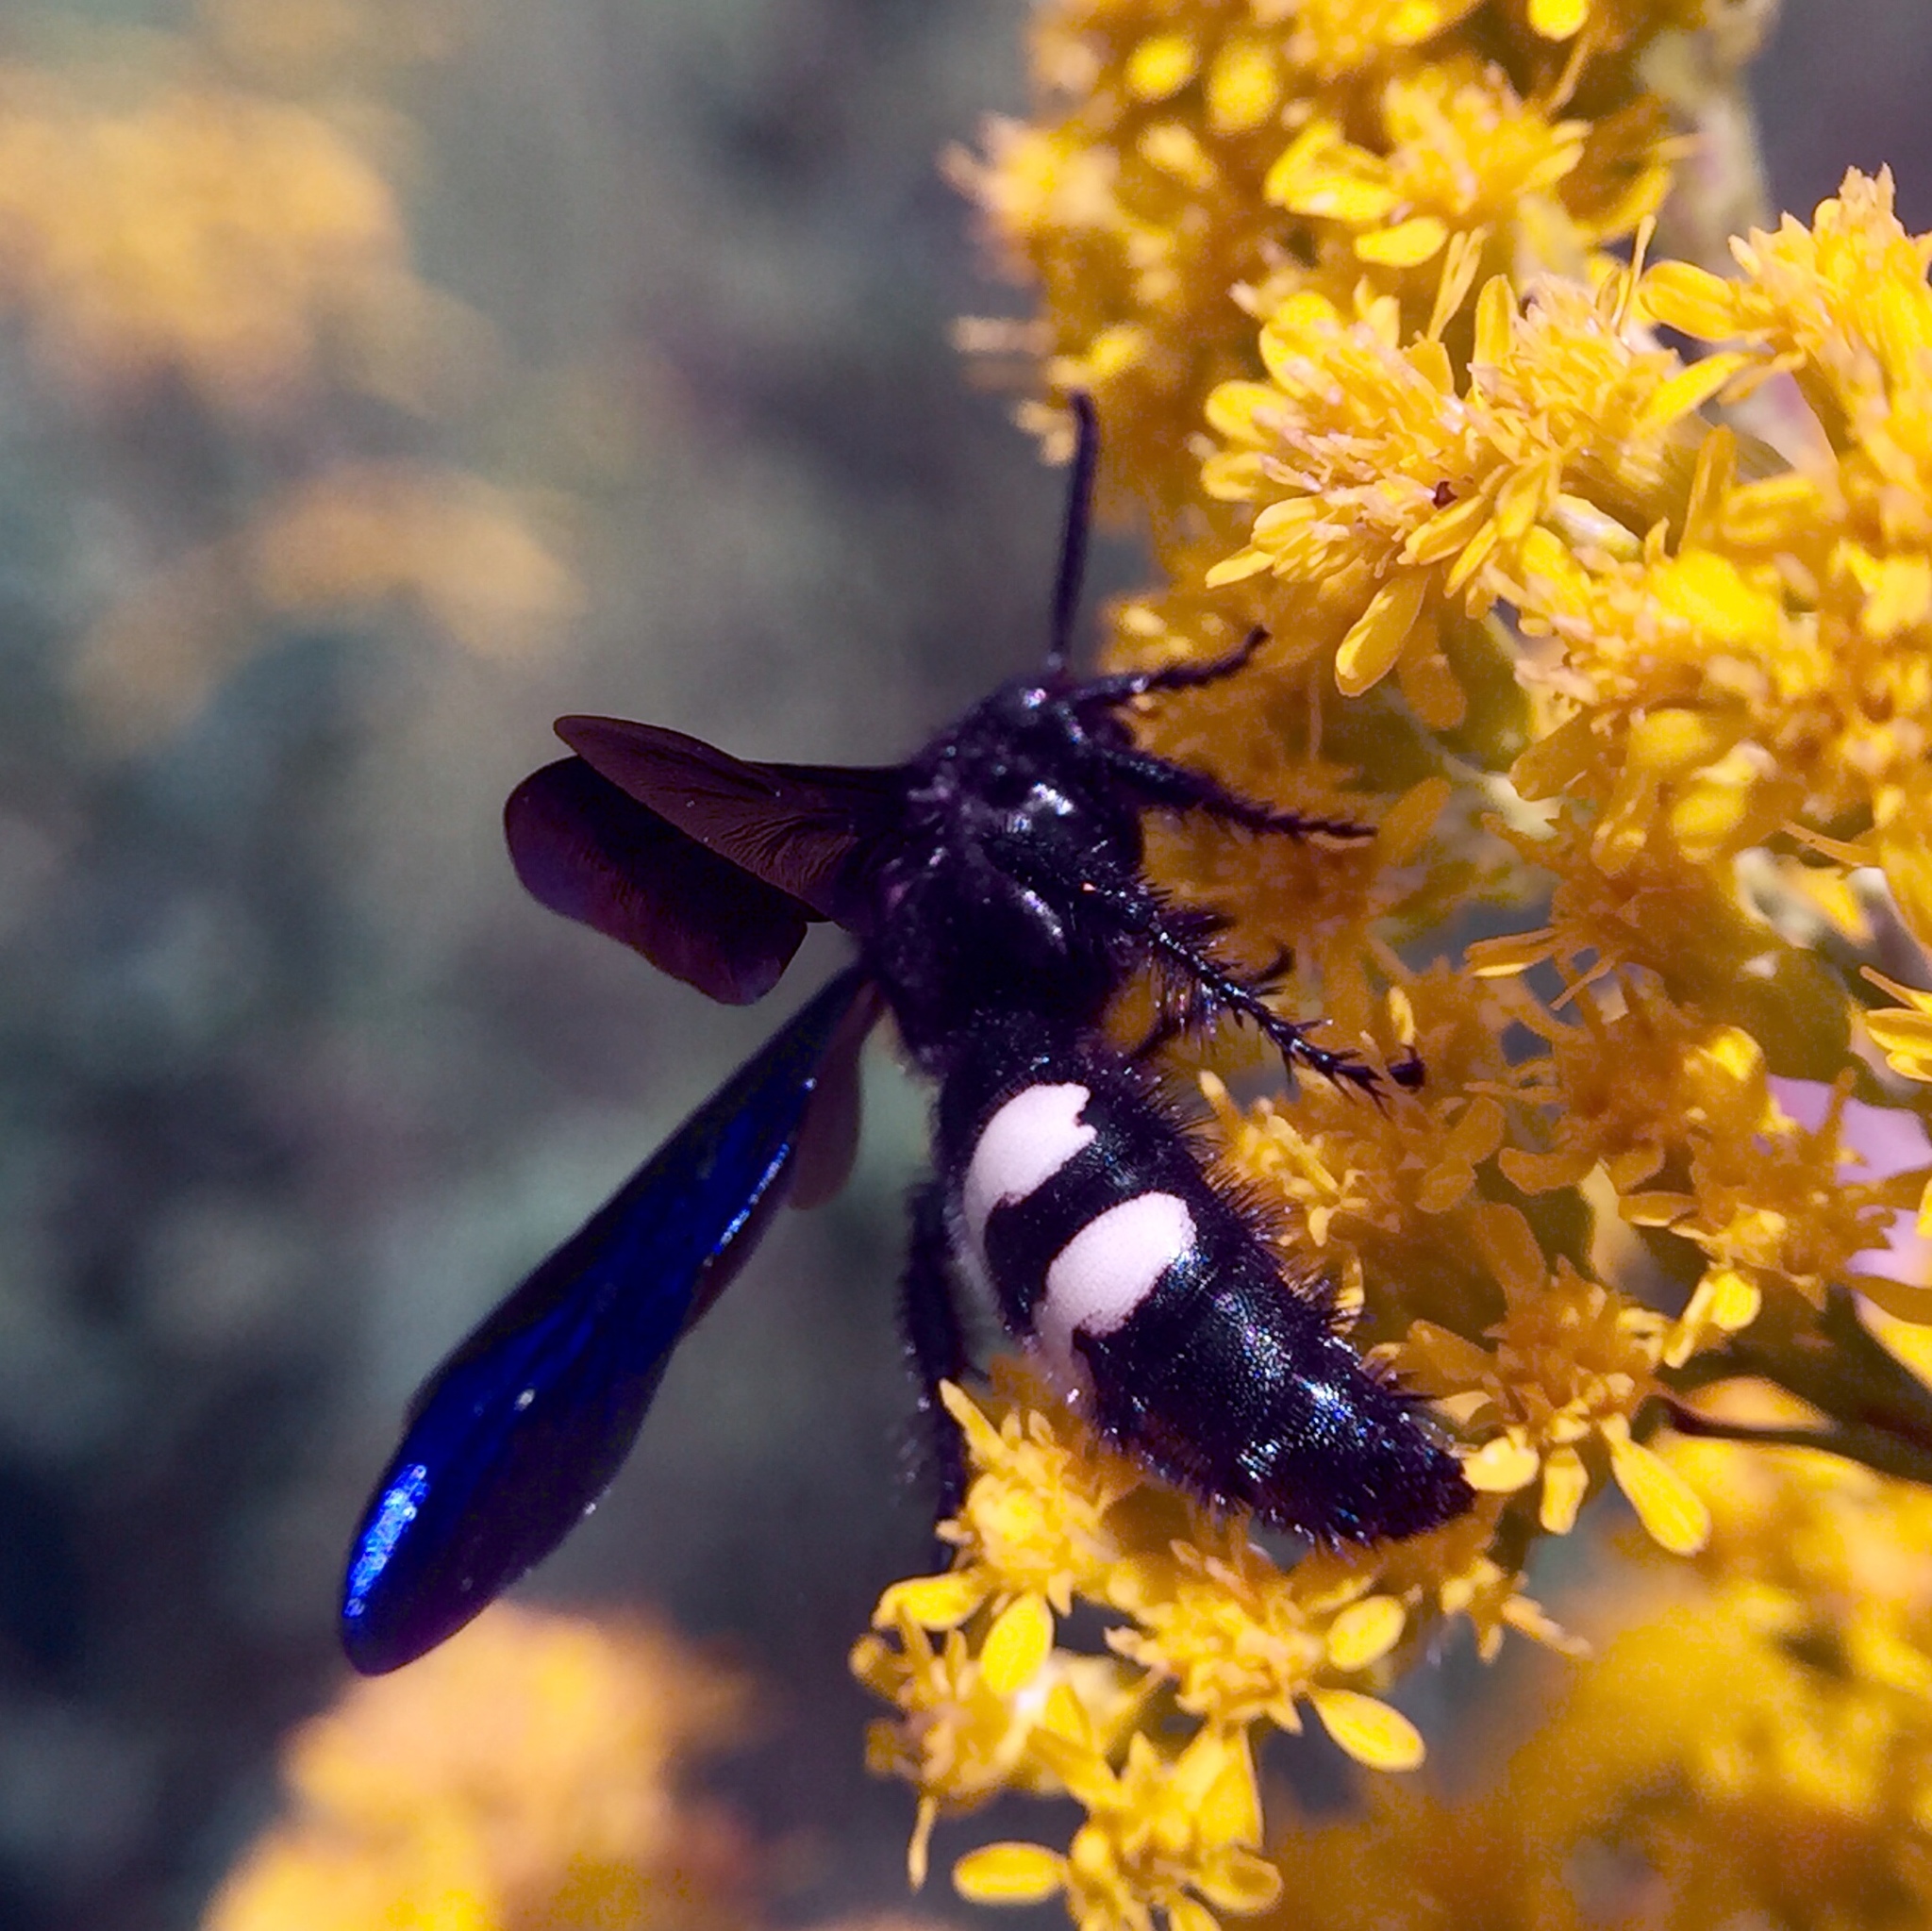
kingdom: Animalia
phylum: Arthropoda
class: Insecta
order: Hymenoptera
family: Scoliidae
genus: Scolia
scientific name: Scolia bicincta
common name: Double-banded scoliid wasp
